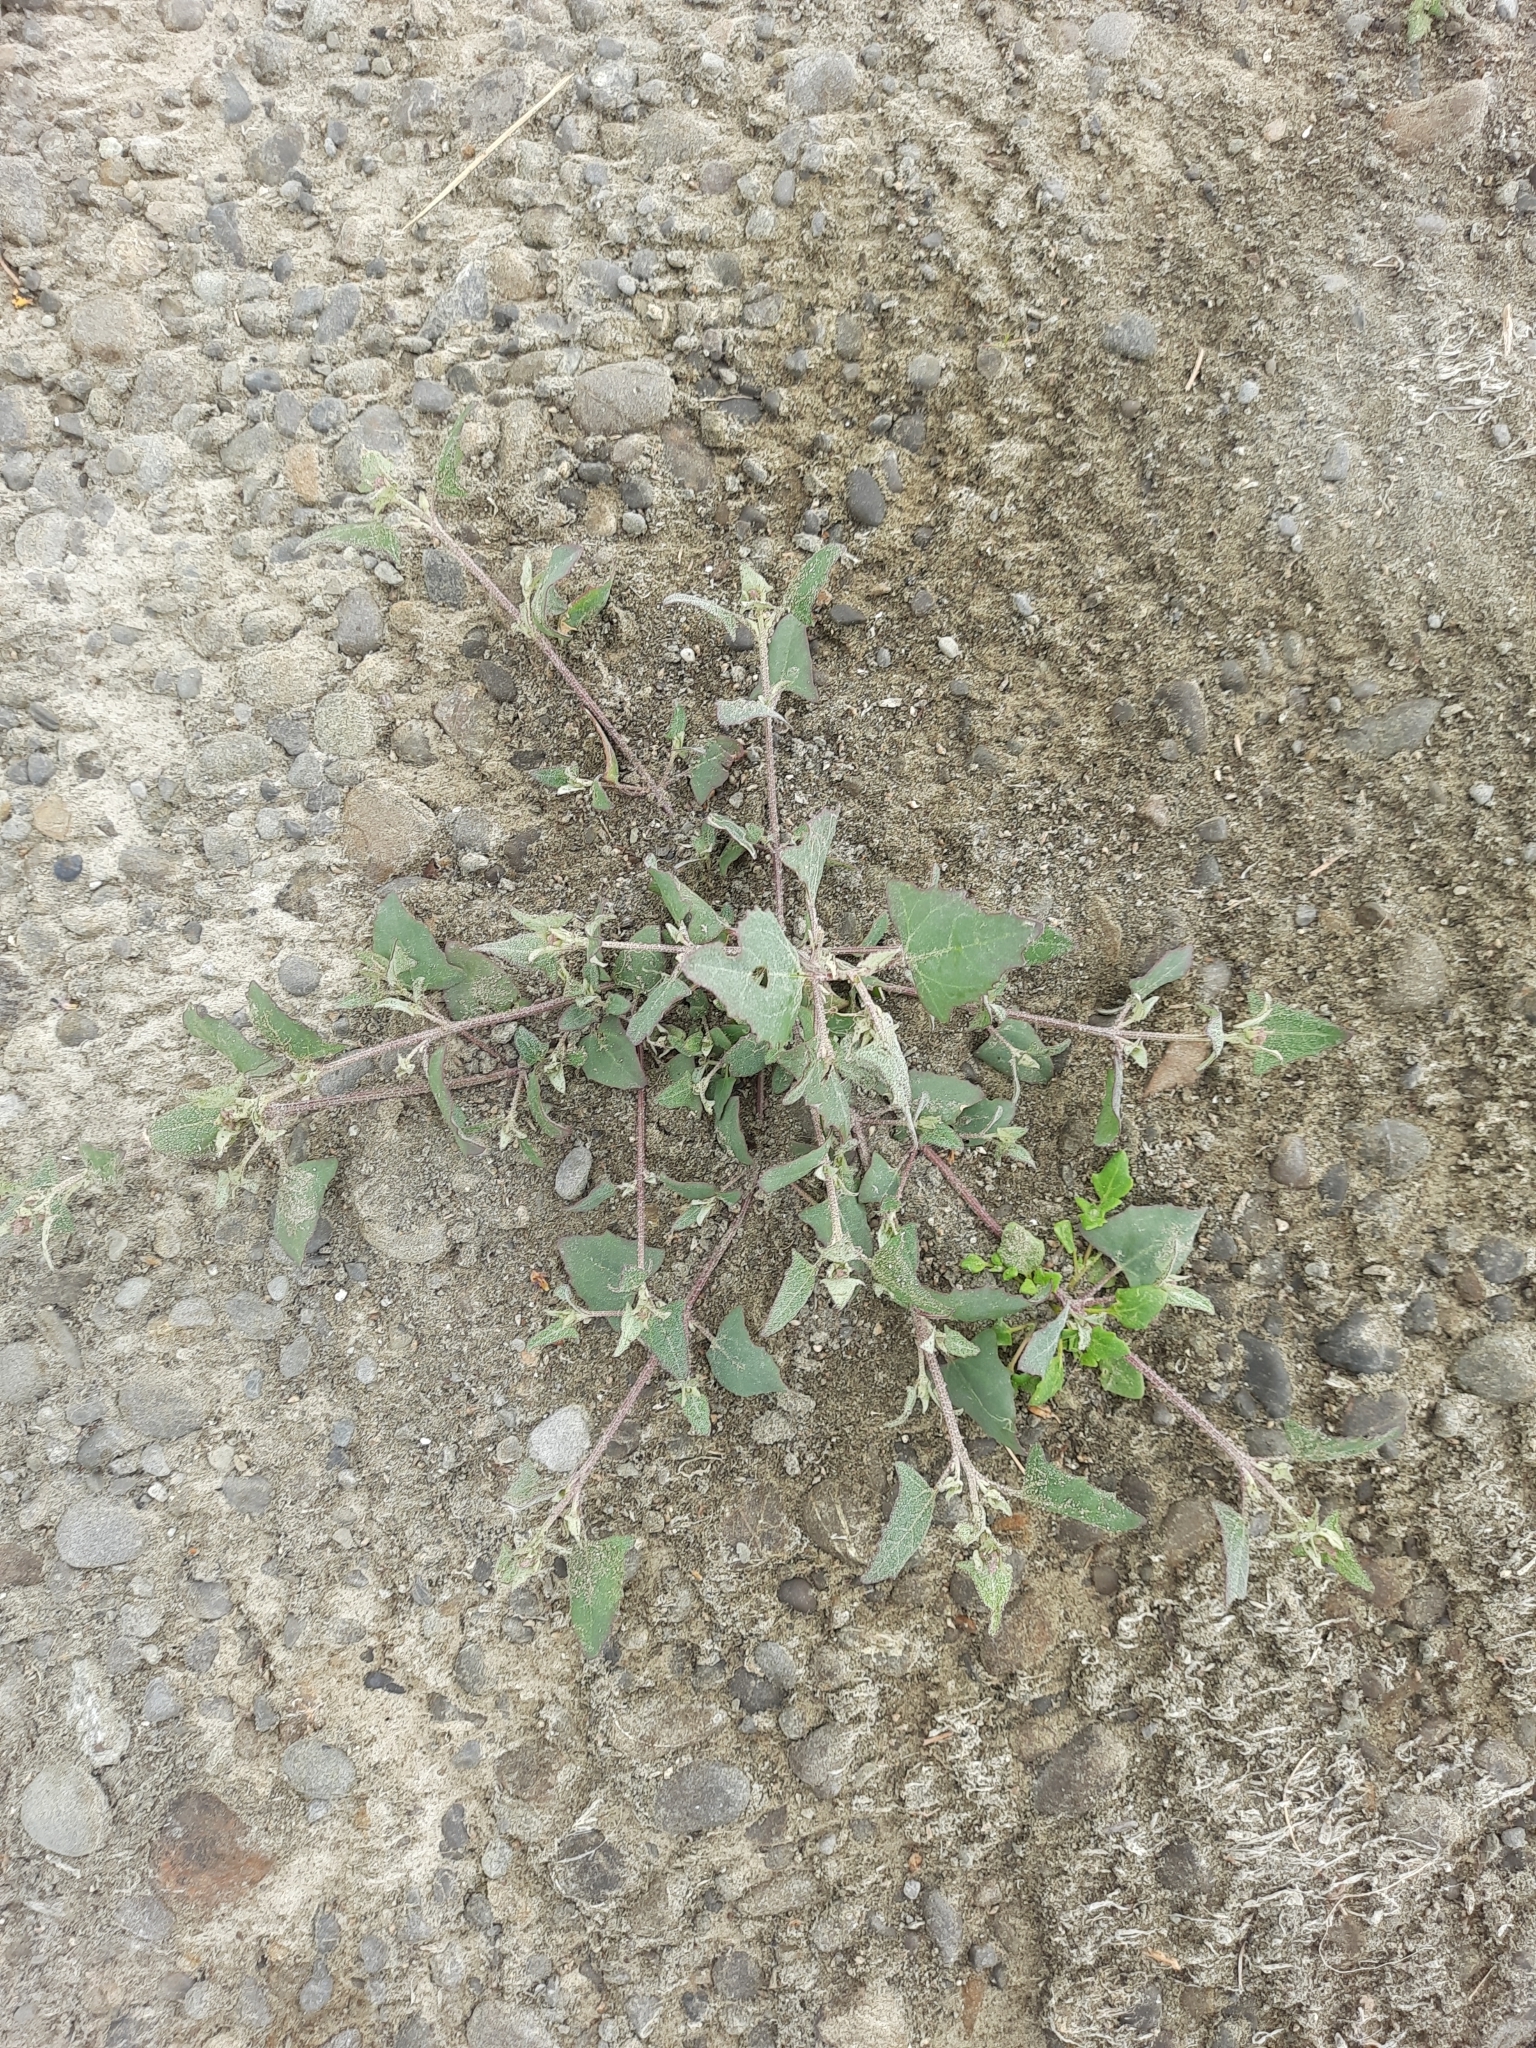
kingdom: Plantae
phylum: Tracheophyta
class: Magnoliopsida
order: Caryophyllales
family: Amaranthaceae
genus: Atriplex
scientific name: Atriplex prostrata
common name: Spear-leaved orache
